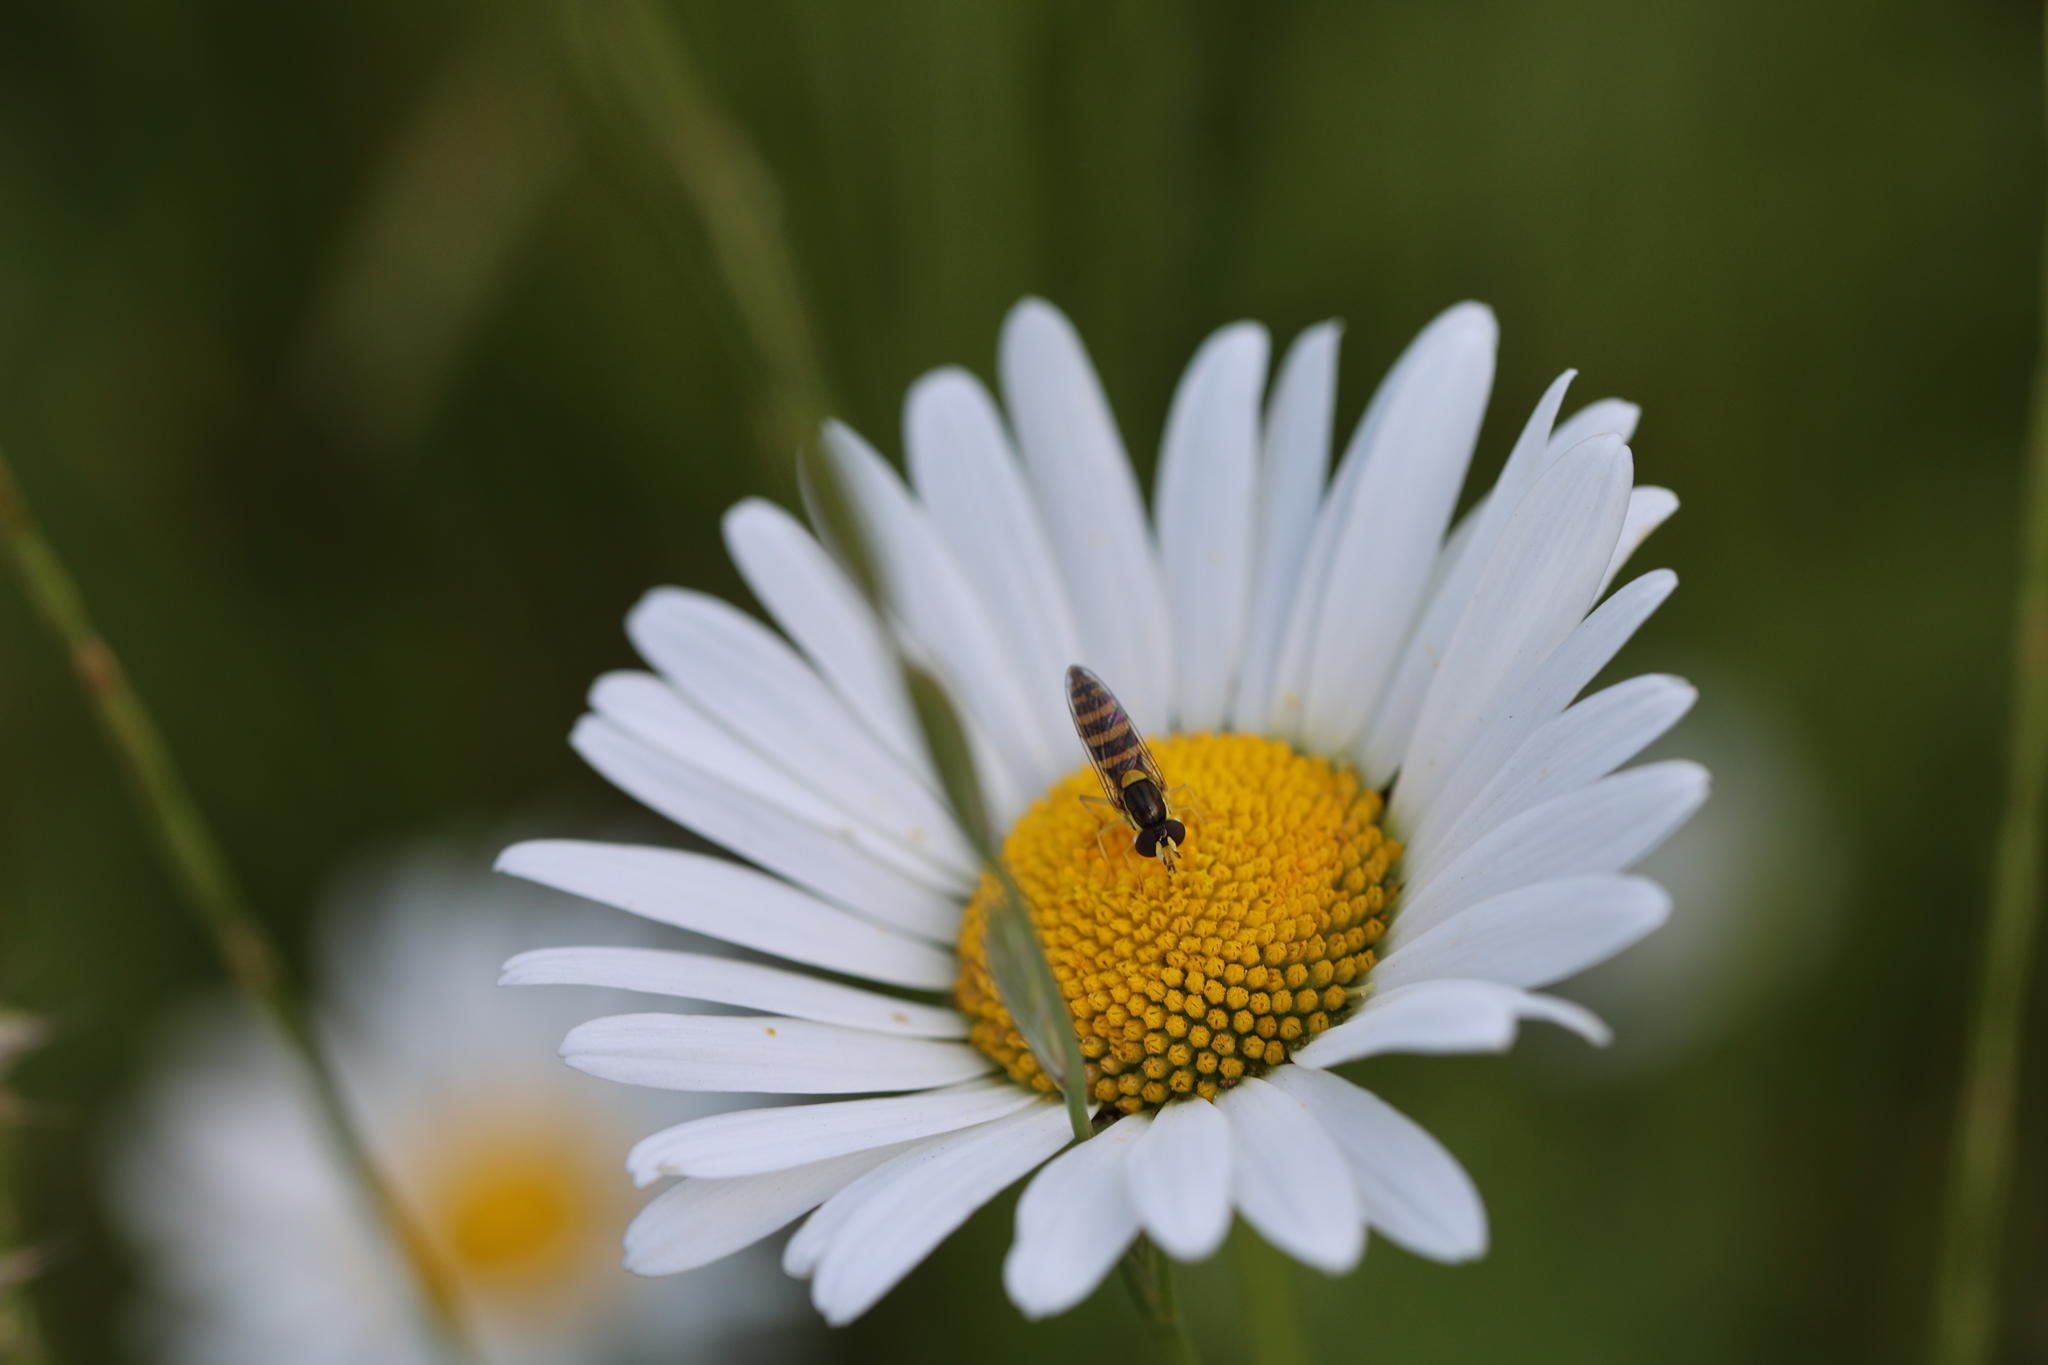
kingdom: Animalia
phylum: Arthropoda
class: Insecta
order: Diptera
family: Syrphidae
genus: Sphaerophoria
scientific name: Sphaerophoria
